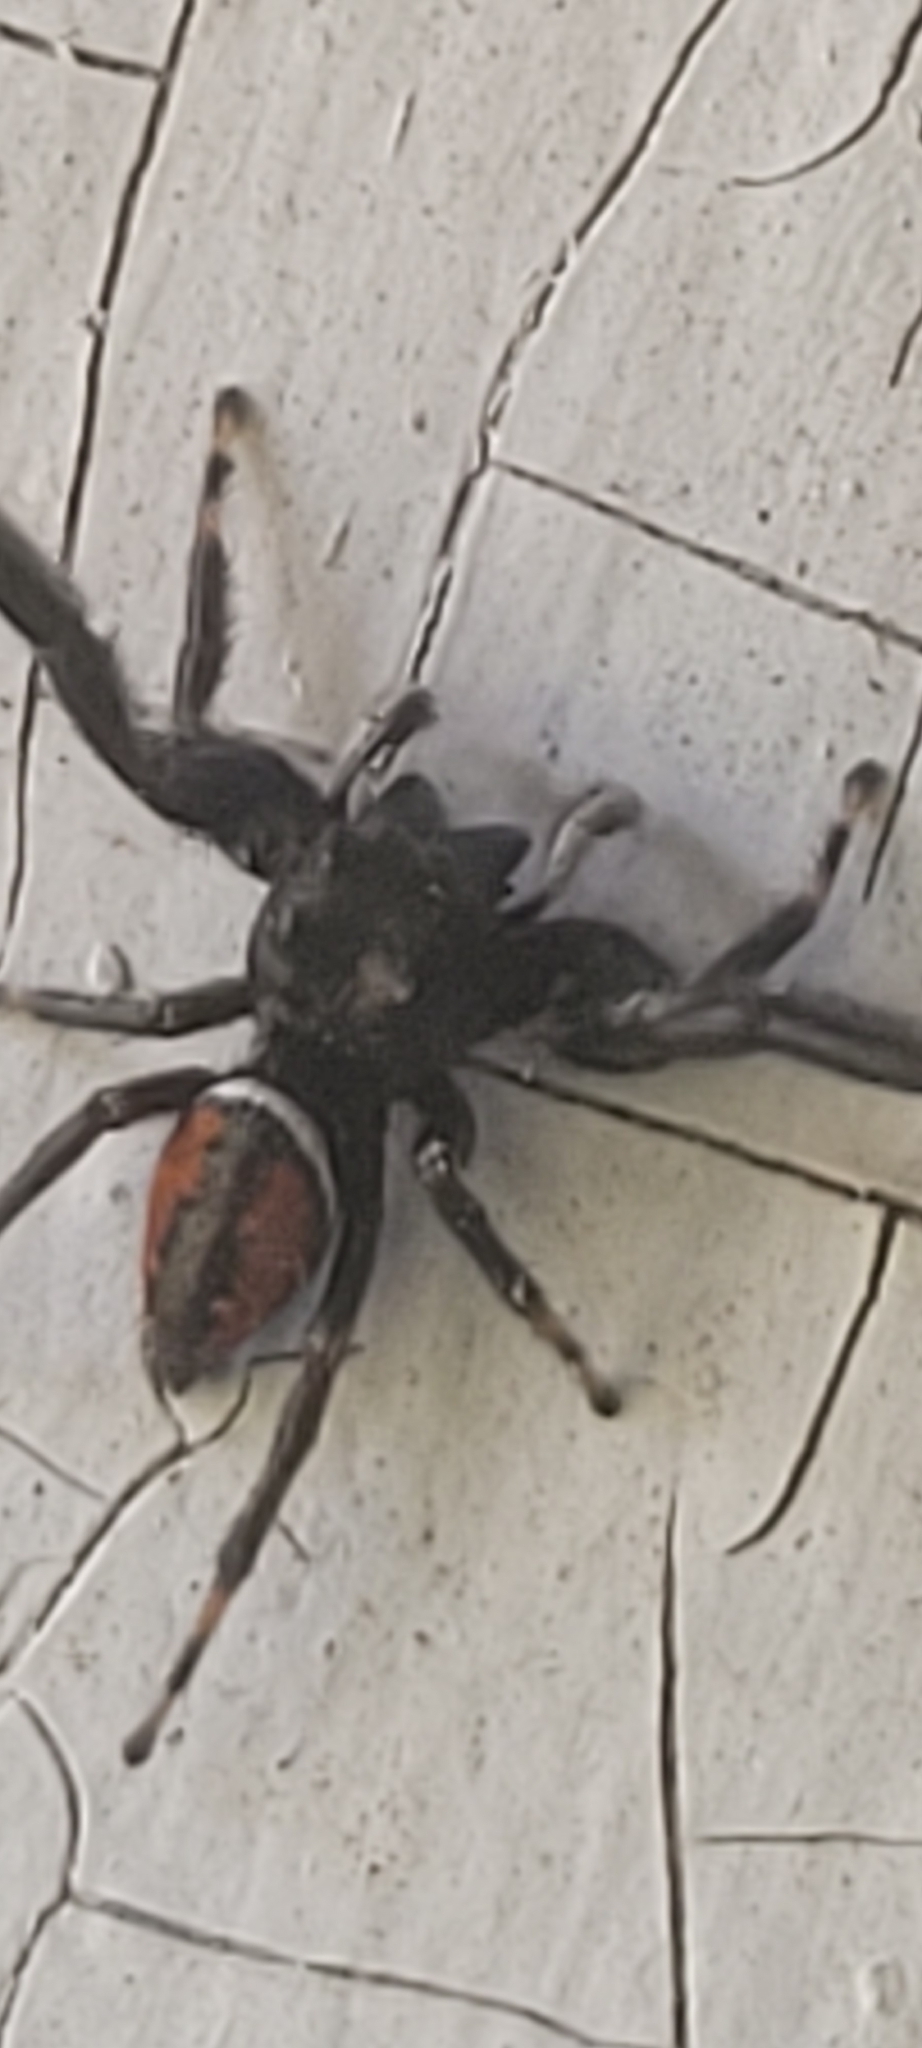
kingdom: Animalia
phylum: Arthropoda
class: Arachnida
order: Araneae
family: Salticidae
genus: Phidippus
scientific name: Phidippus clarus
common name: Brilliant jumping spider
